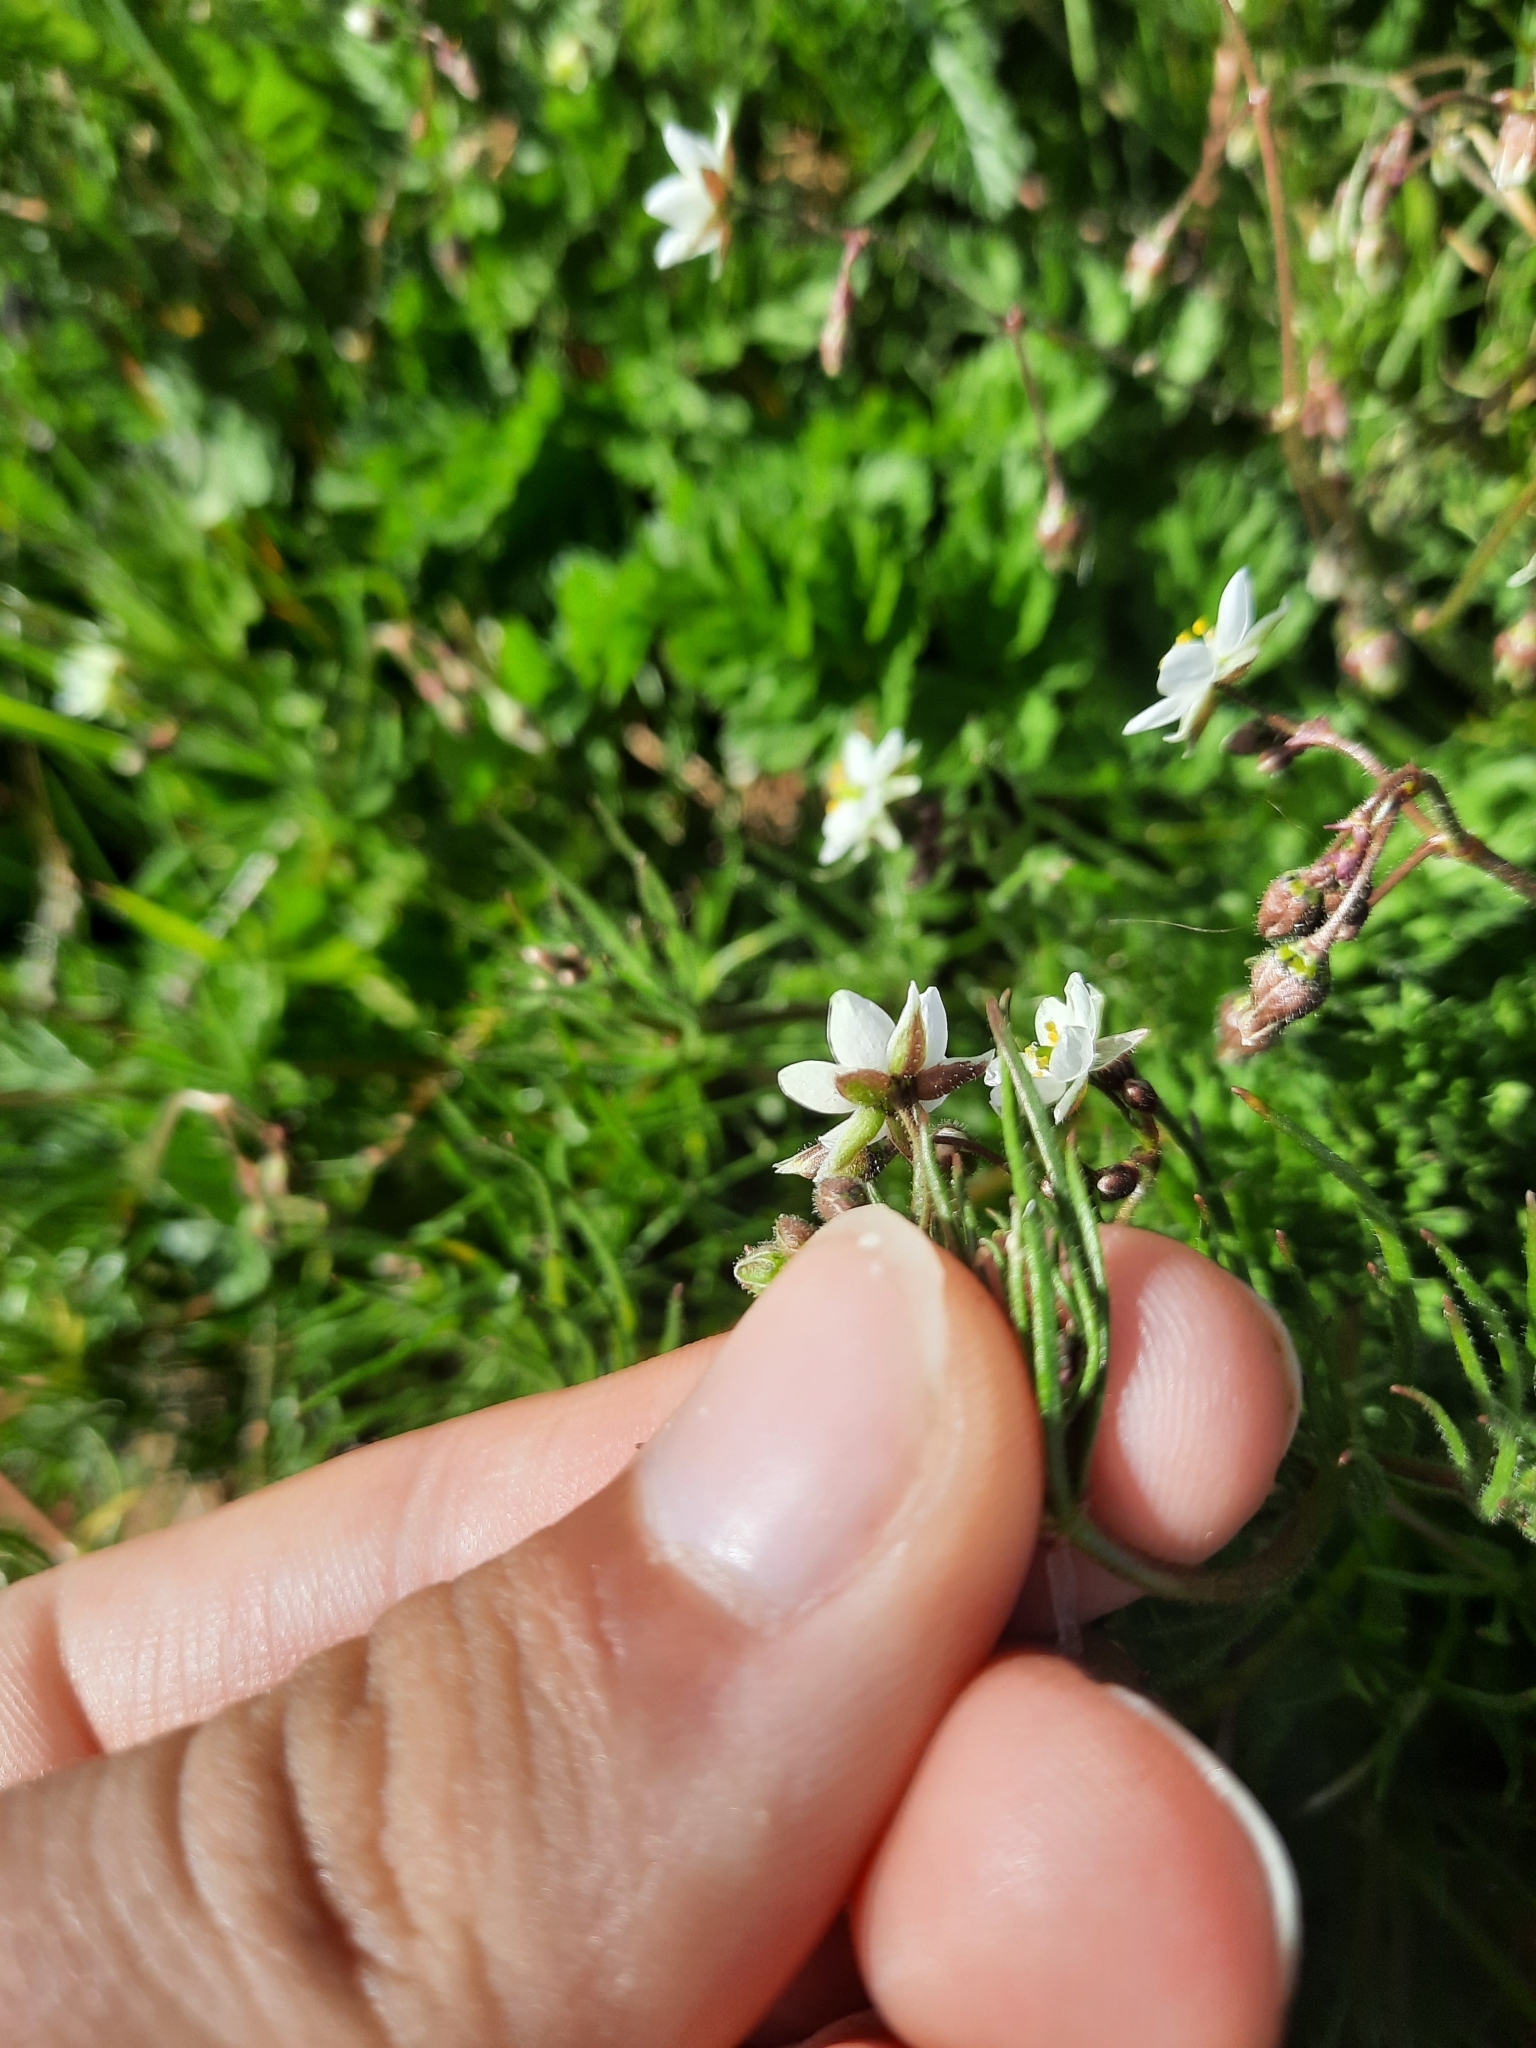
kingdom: Plantae
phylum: Tracheophyta
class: Magnoliopsida
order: Caryophyllales
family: Caryophyllaceae
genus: Spergula
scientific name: Spergula arvensis
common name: Corn spurrey
